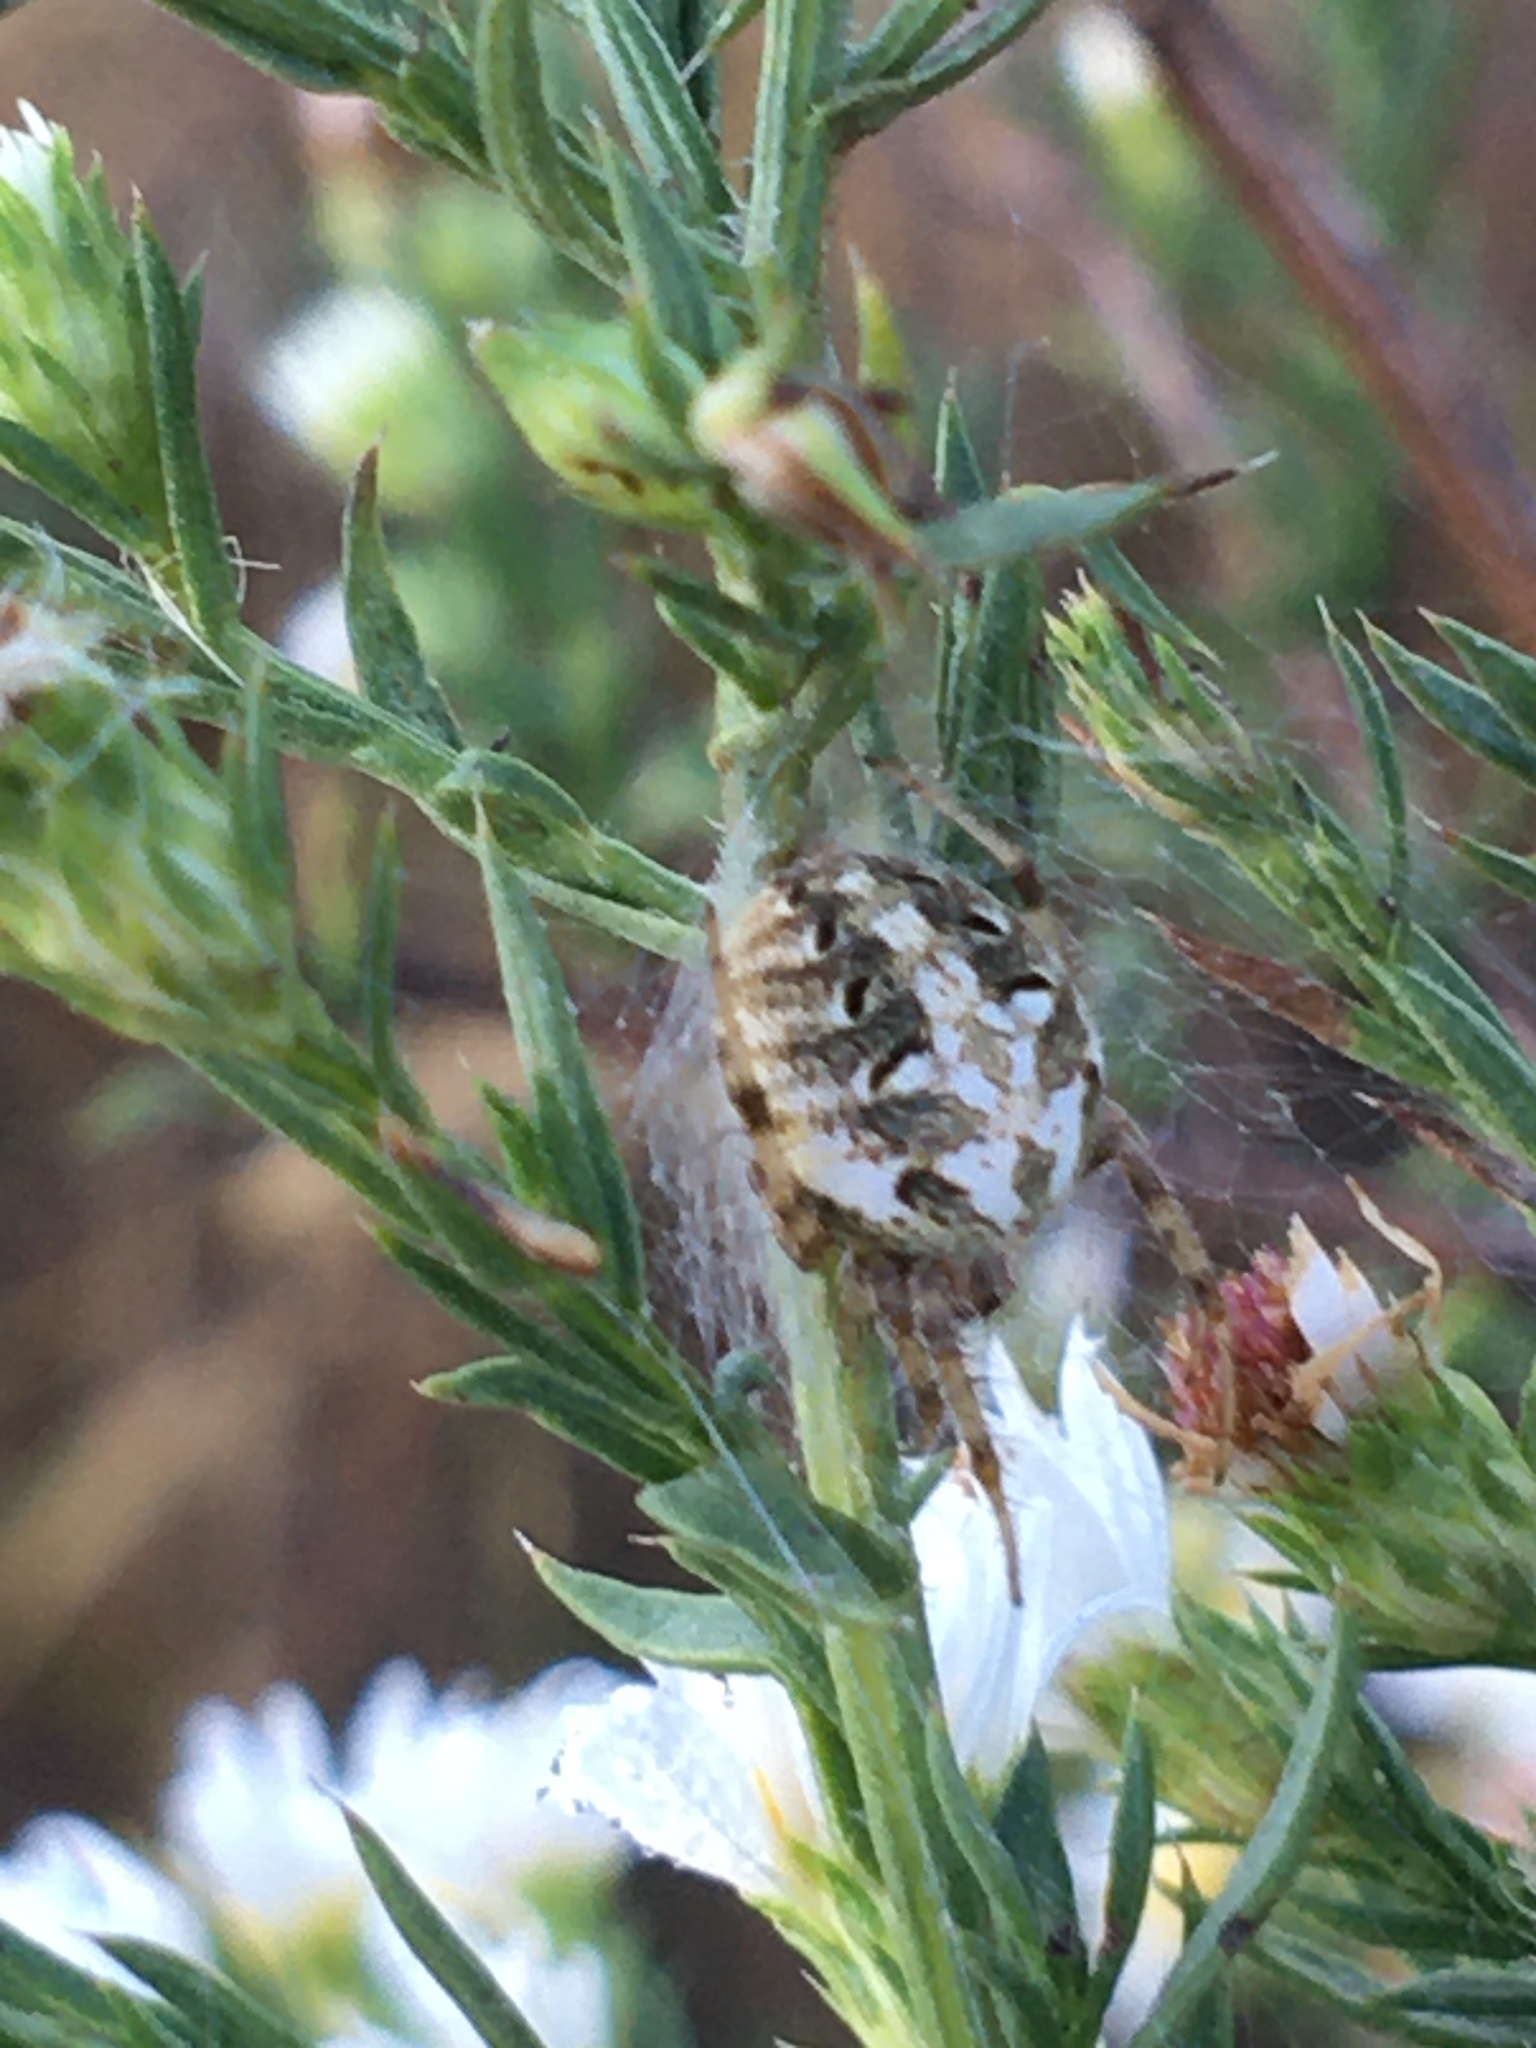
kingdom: Animalia
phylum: Arthropoda
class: Arachnida
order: Araneae
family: Araneidae
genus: Neoscona
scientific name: Neoscona arabesca
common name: Orb weavers
